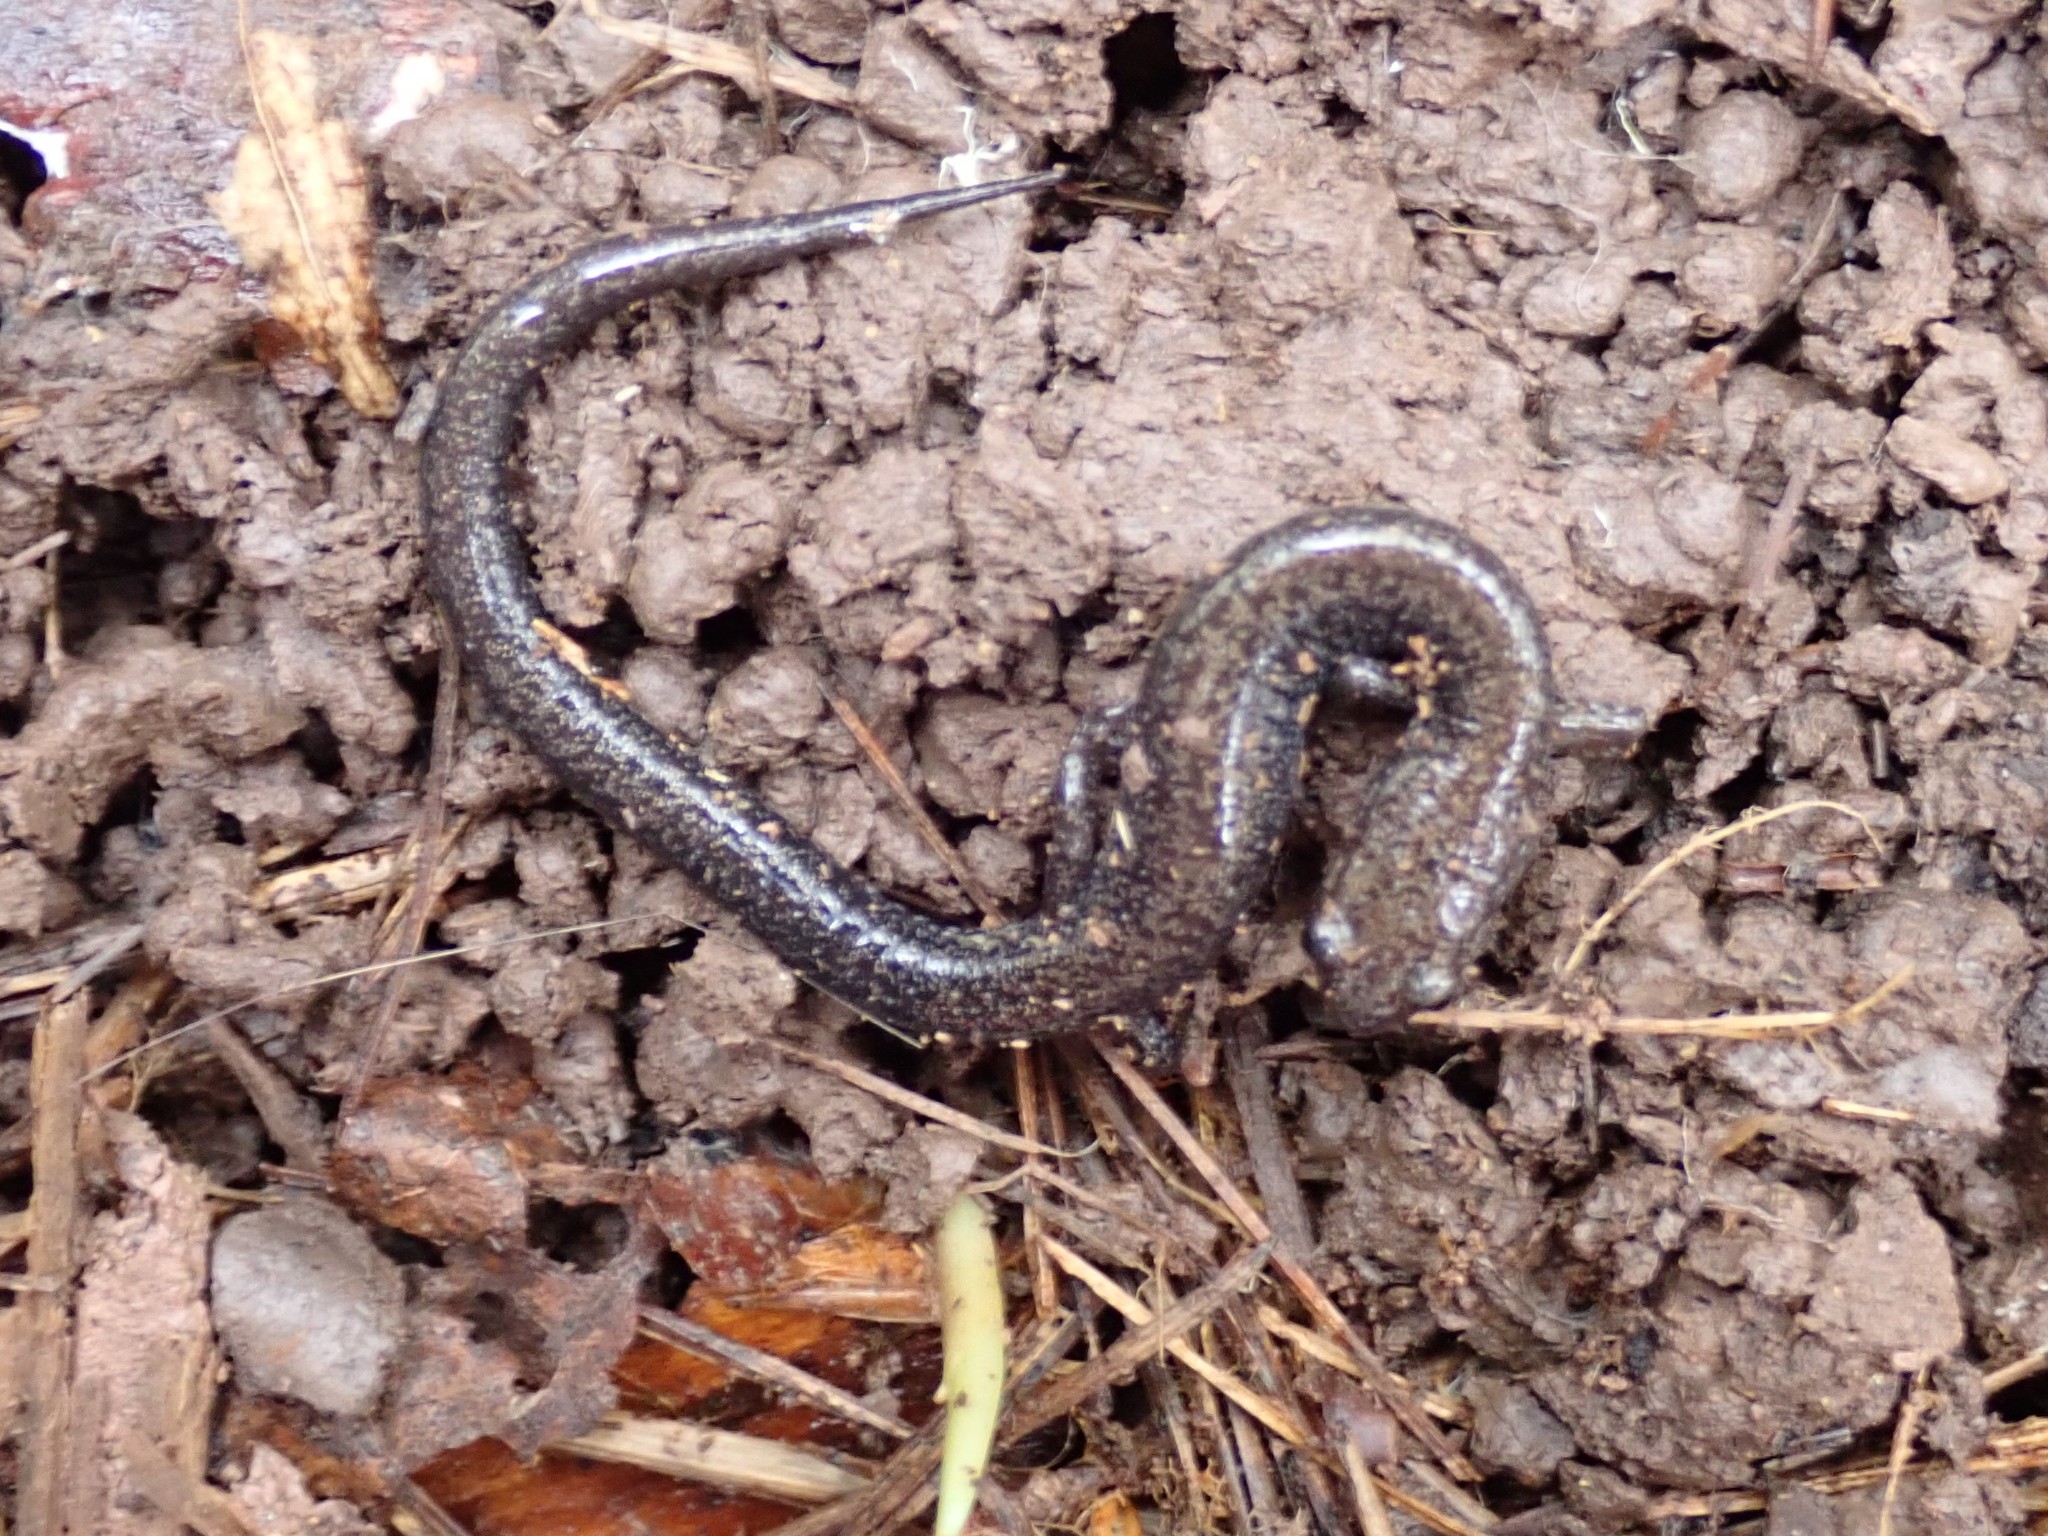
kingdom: Animalia
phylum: Chordata
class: Amphibia
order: Caudata
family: Plethodontidae
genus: Plethodon
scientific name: Plethodon cinereus
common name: Redback salamander
